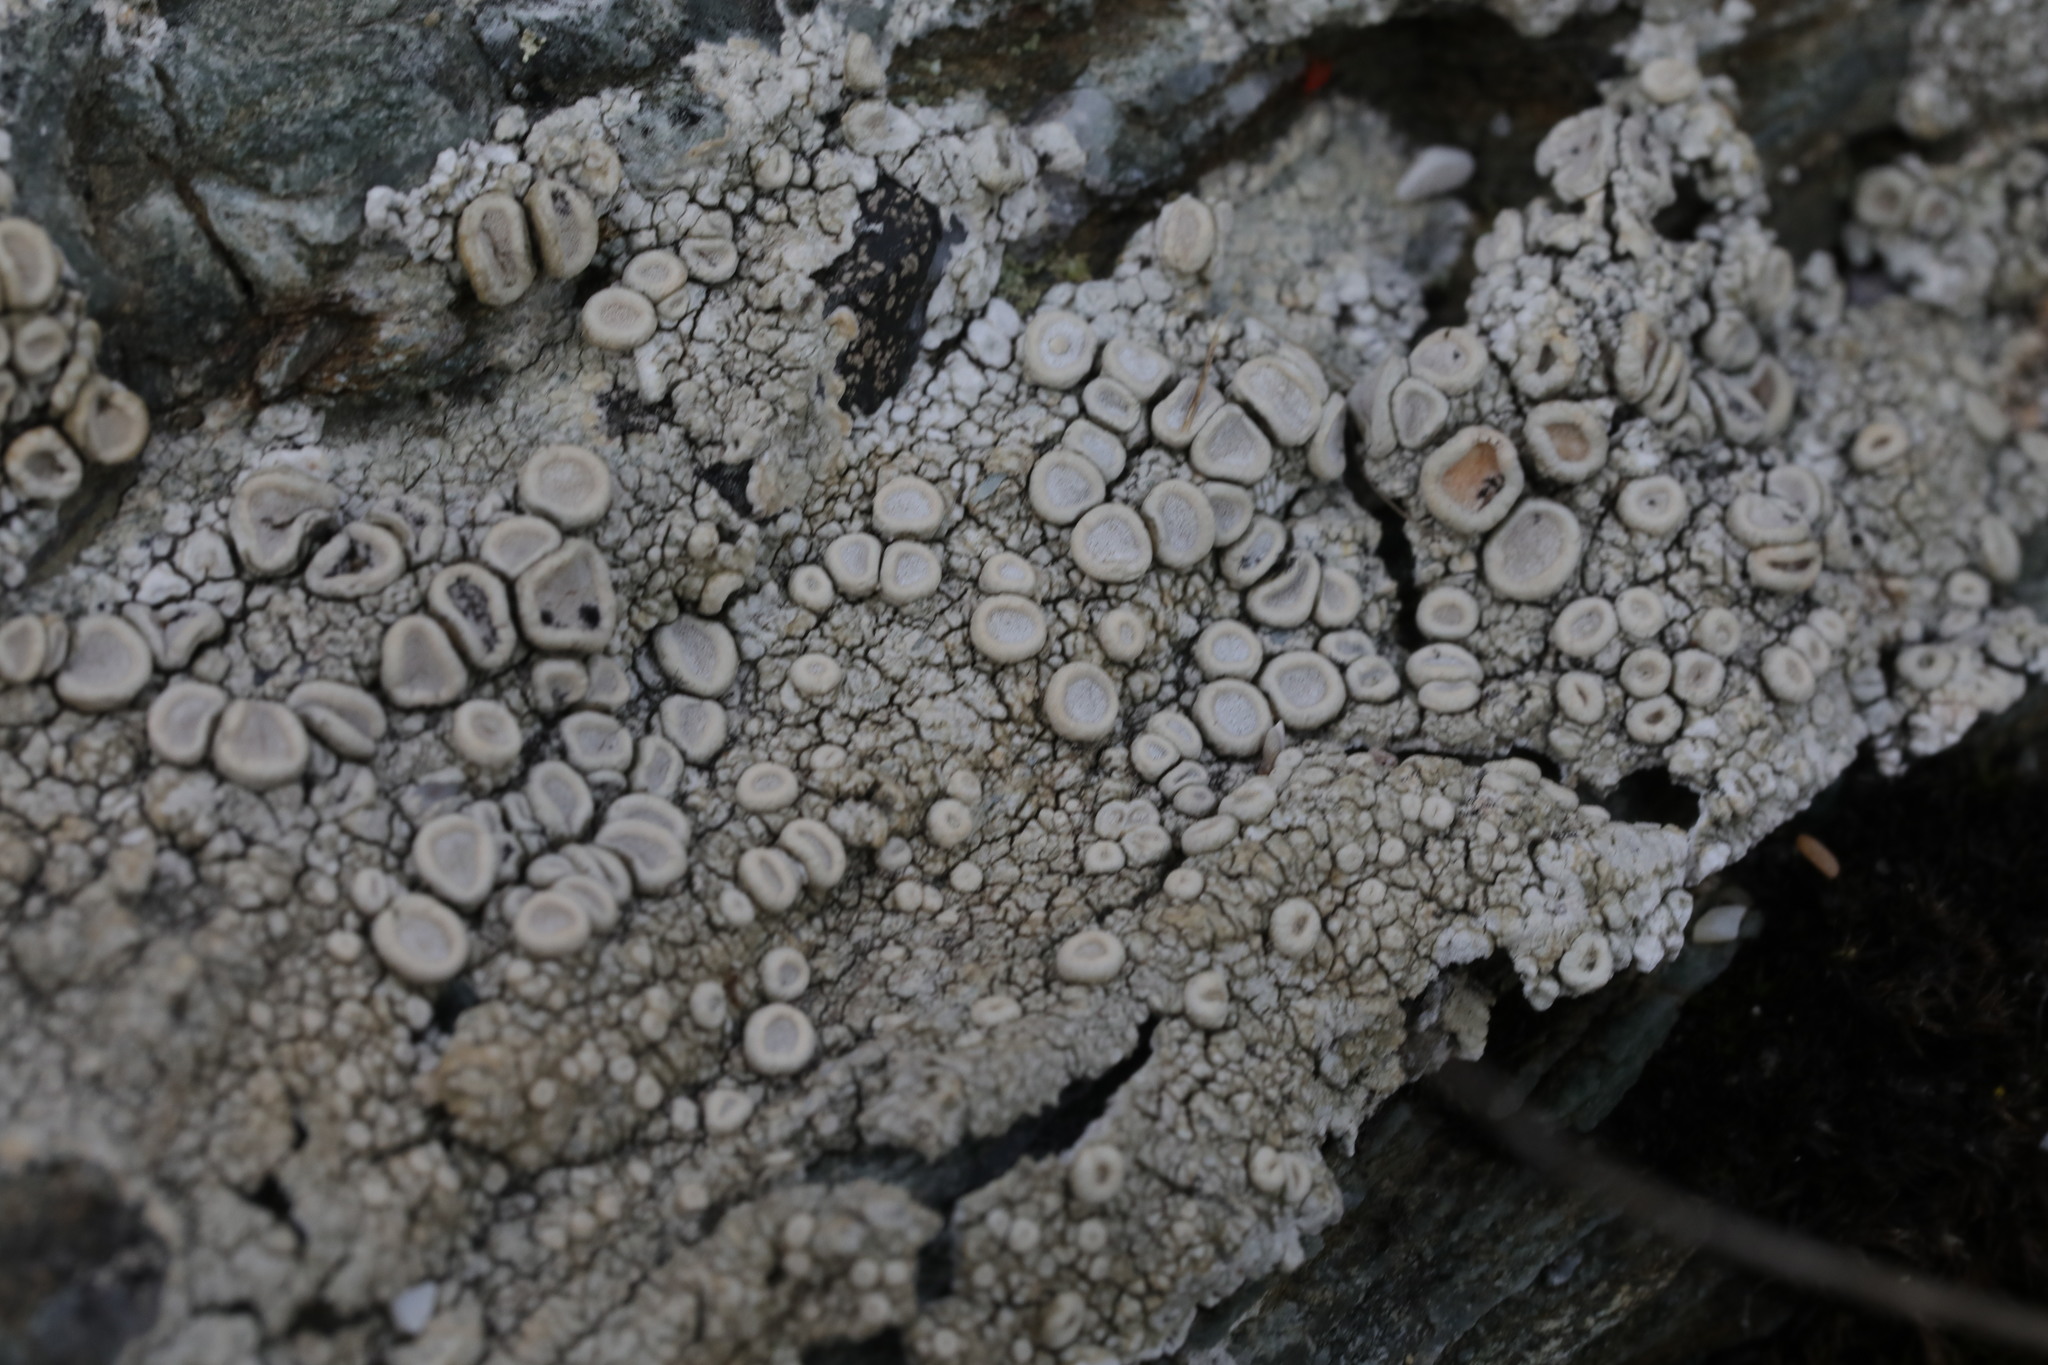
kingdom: Fungi
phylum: Ascomycota
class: Lecanoromycetes
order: Pertusariales
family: Ochrolechiaceae
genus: Ochrolechia
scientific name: Ochrolechia parella
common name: Crab's eye lichen
